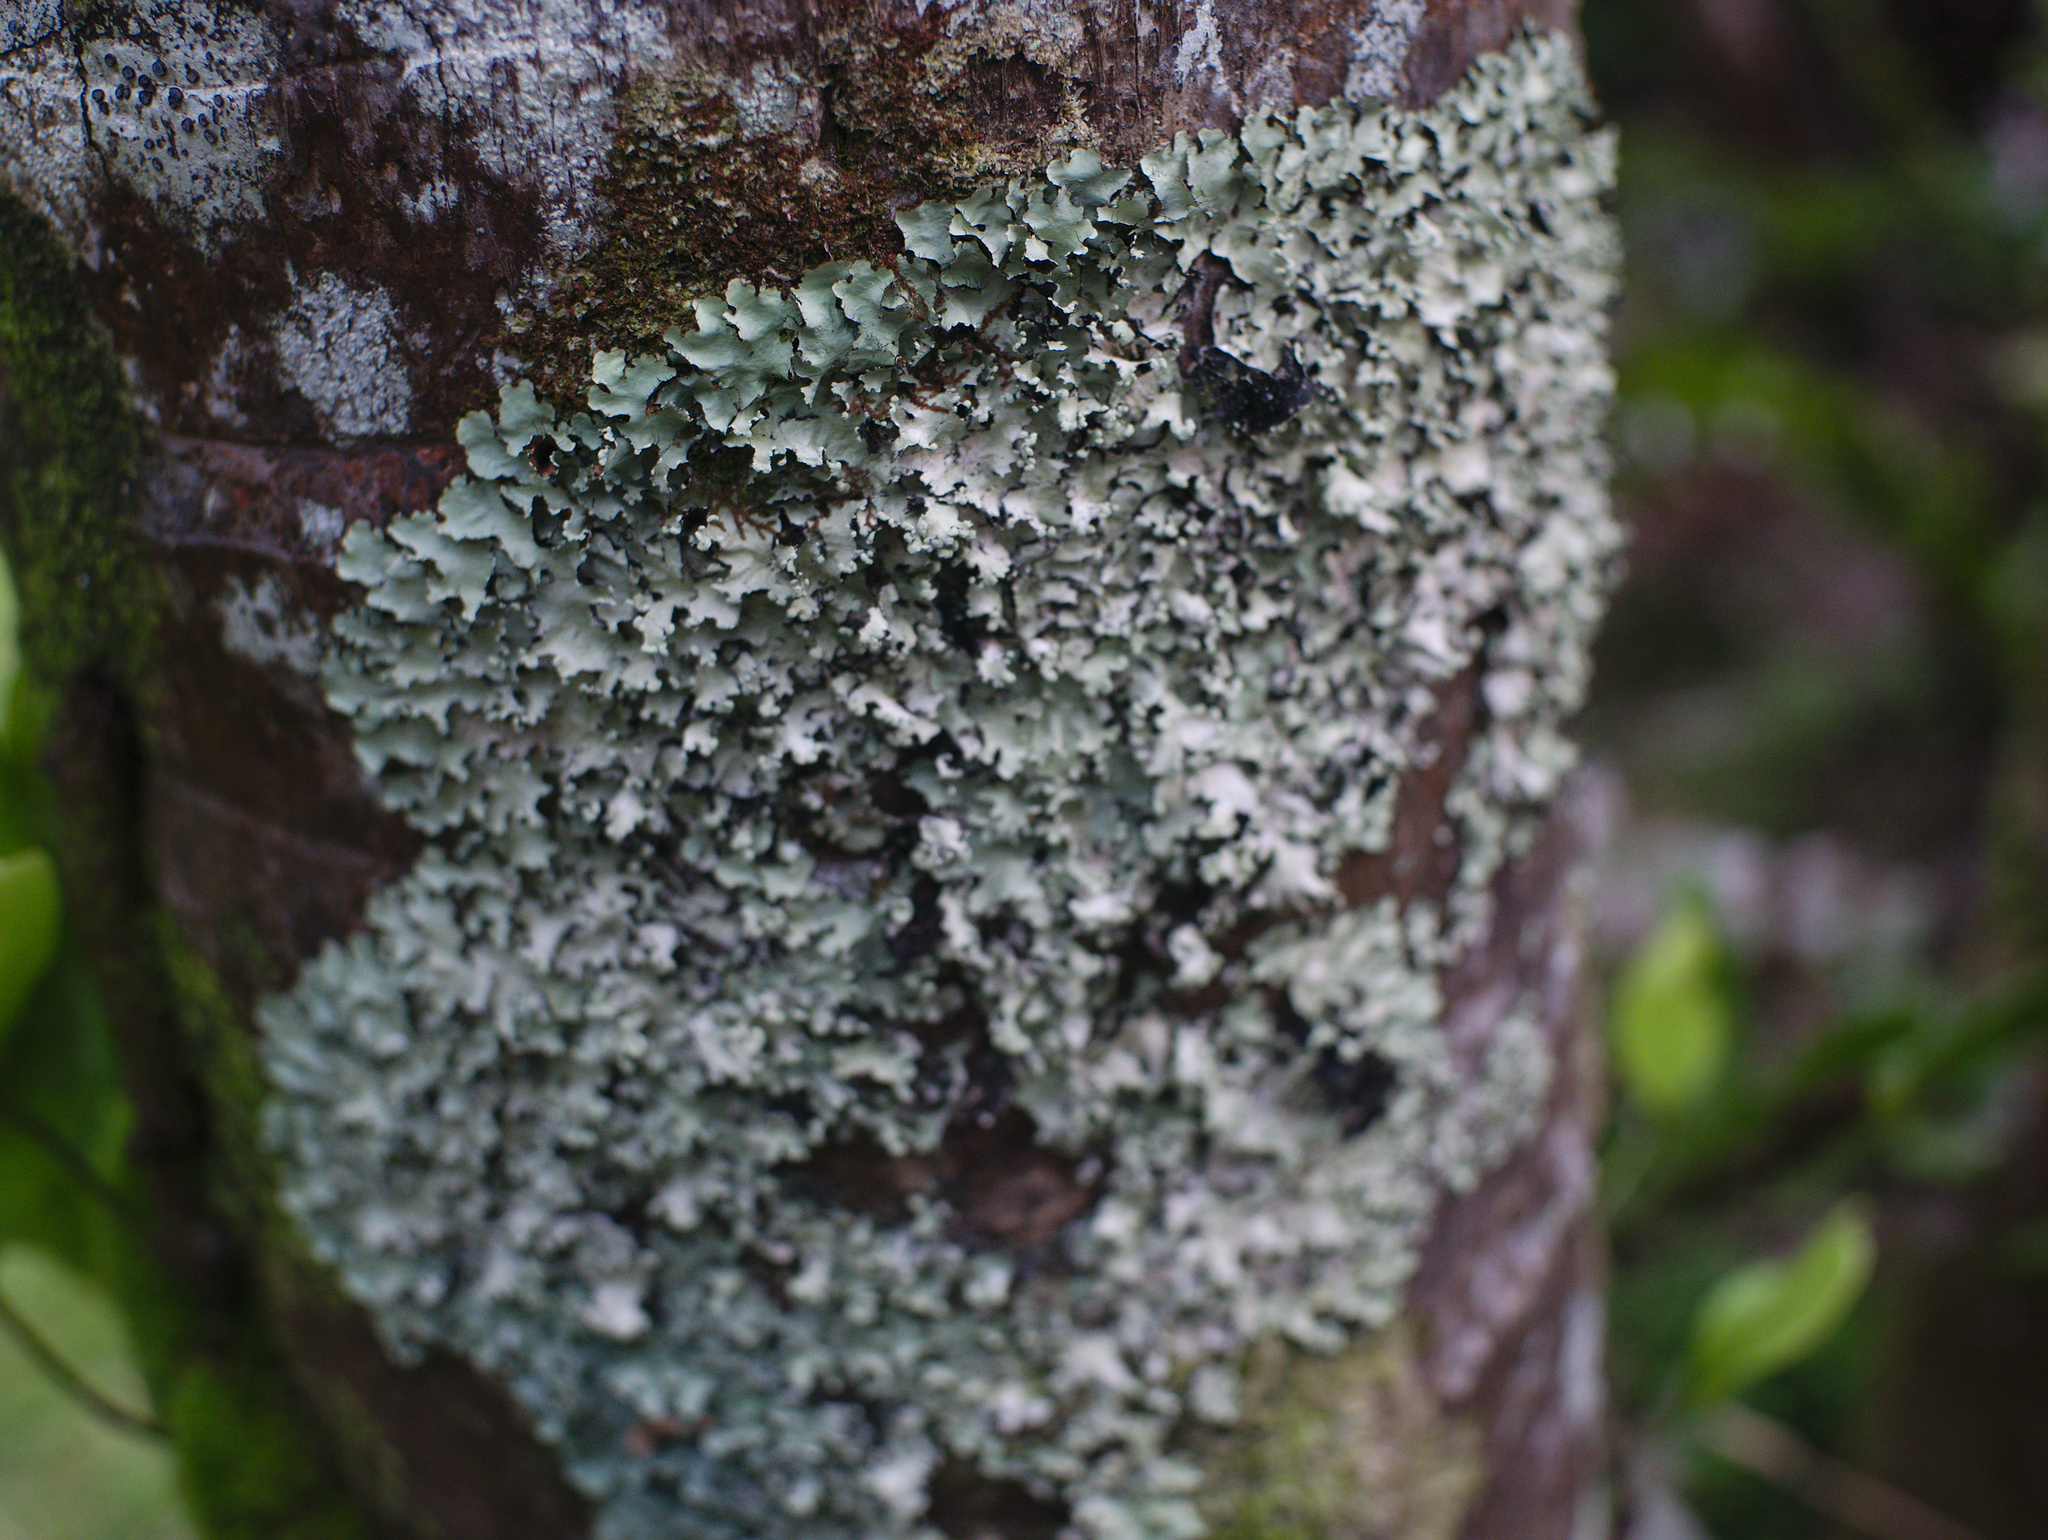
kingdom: Fungi
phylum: Ascomycota
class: Lecanoromycetes
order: Lecanorales
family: Parmeliaceae
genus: Parmotrema
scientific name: Parmotrema perlatum
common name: Black stone flower
